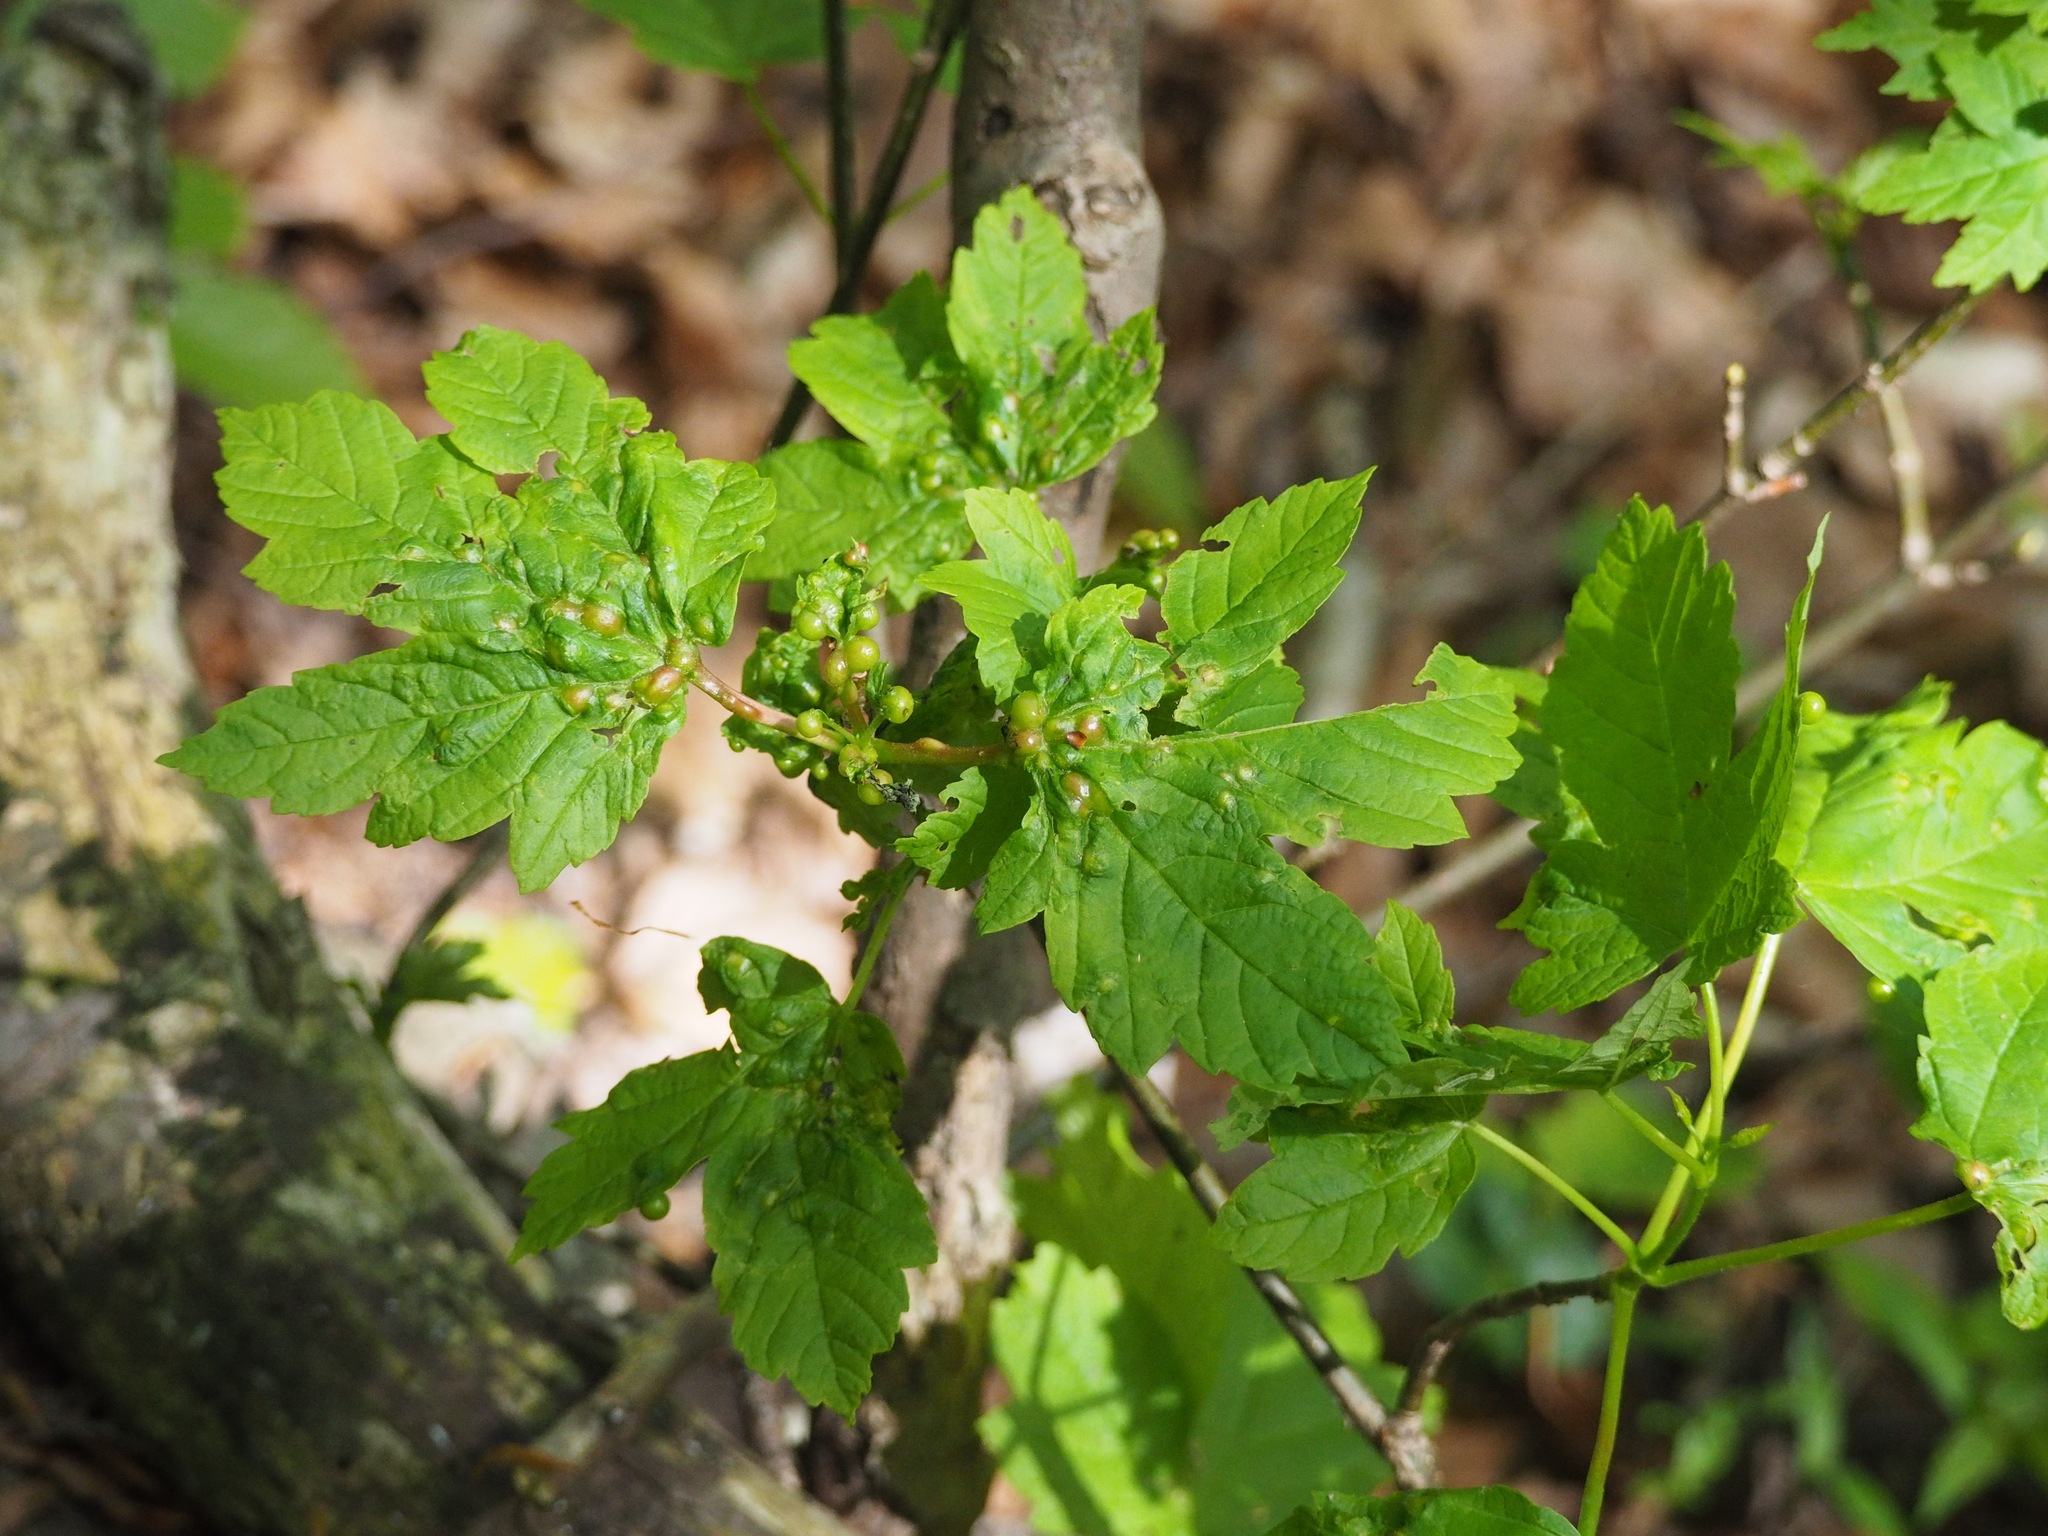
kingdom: Animalia
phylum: Arthropoda
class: Insecta
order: Hymenoptera
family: Cynipidae
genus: Pediaspis
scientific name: Pediaspis aceris
